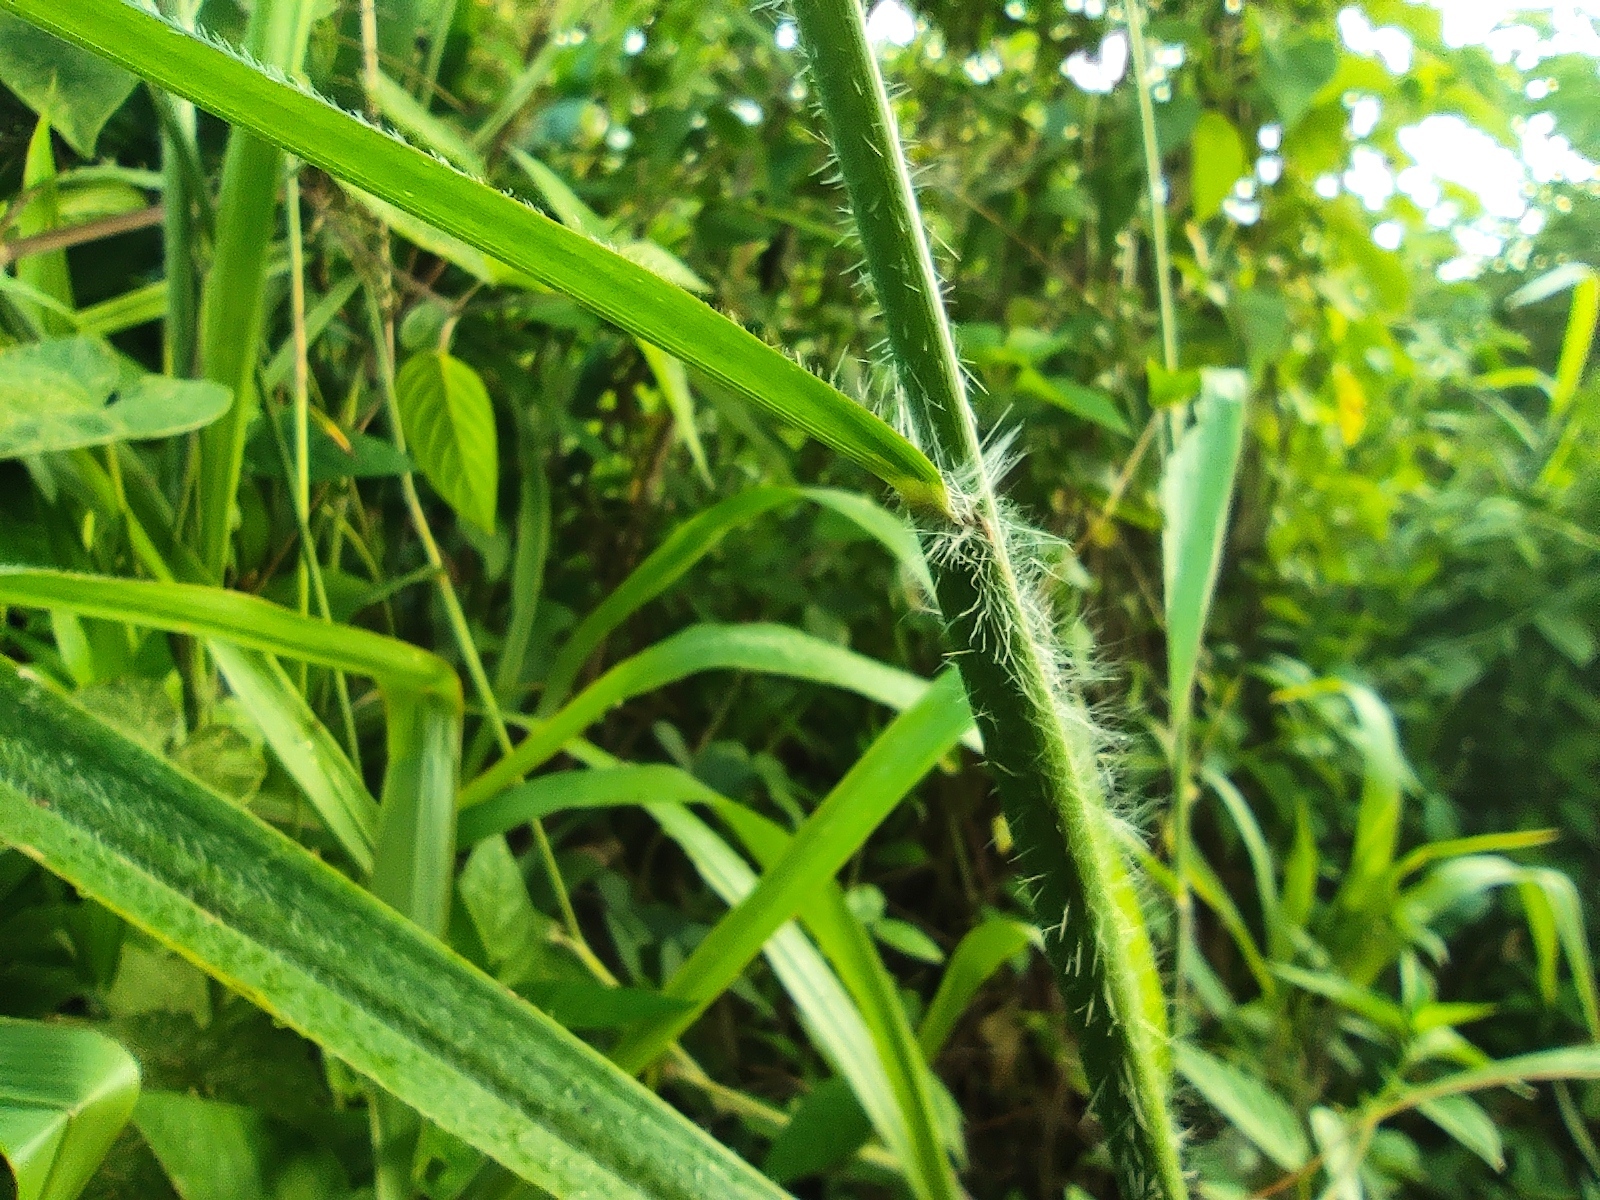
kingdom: Plantae
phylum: Tracheophyta
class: Liliopsida
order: Poales
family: Poaceae
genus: Paspalum
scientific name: Paspalum paniculatum
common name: Arrocillo
